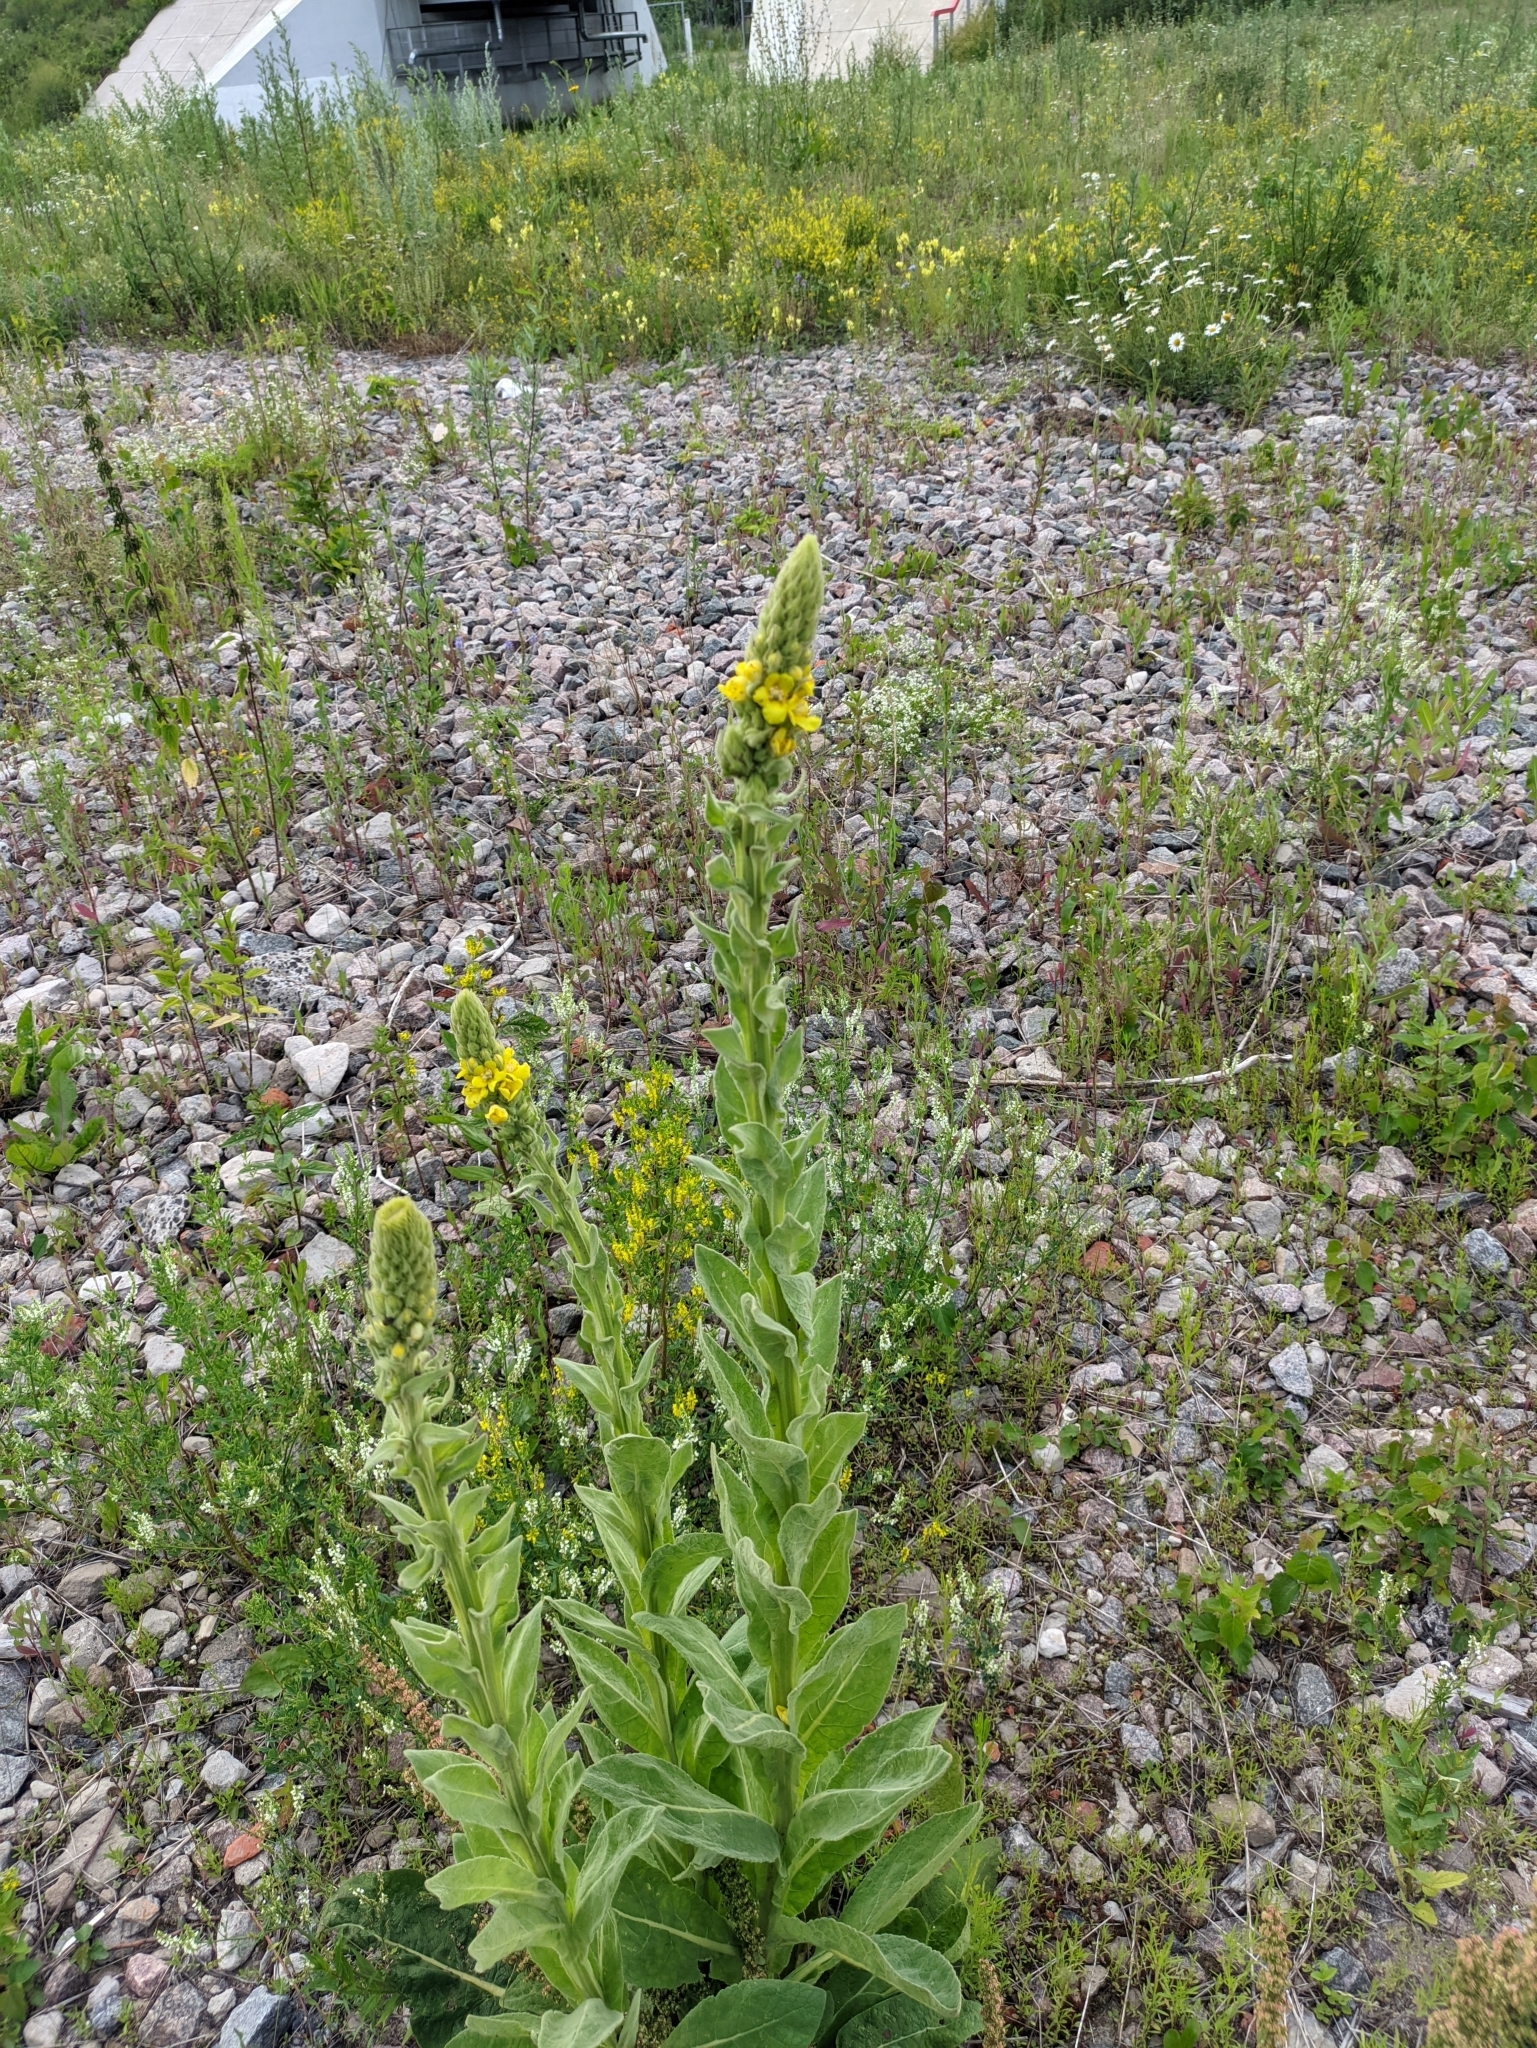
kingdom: Plantae
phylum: Tracheophyta
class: Magnoliopsida
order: Lamiales
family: Scrophulariaceae
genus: Verbascum
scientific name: Verbascum thapsus
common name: Common mullein
